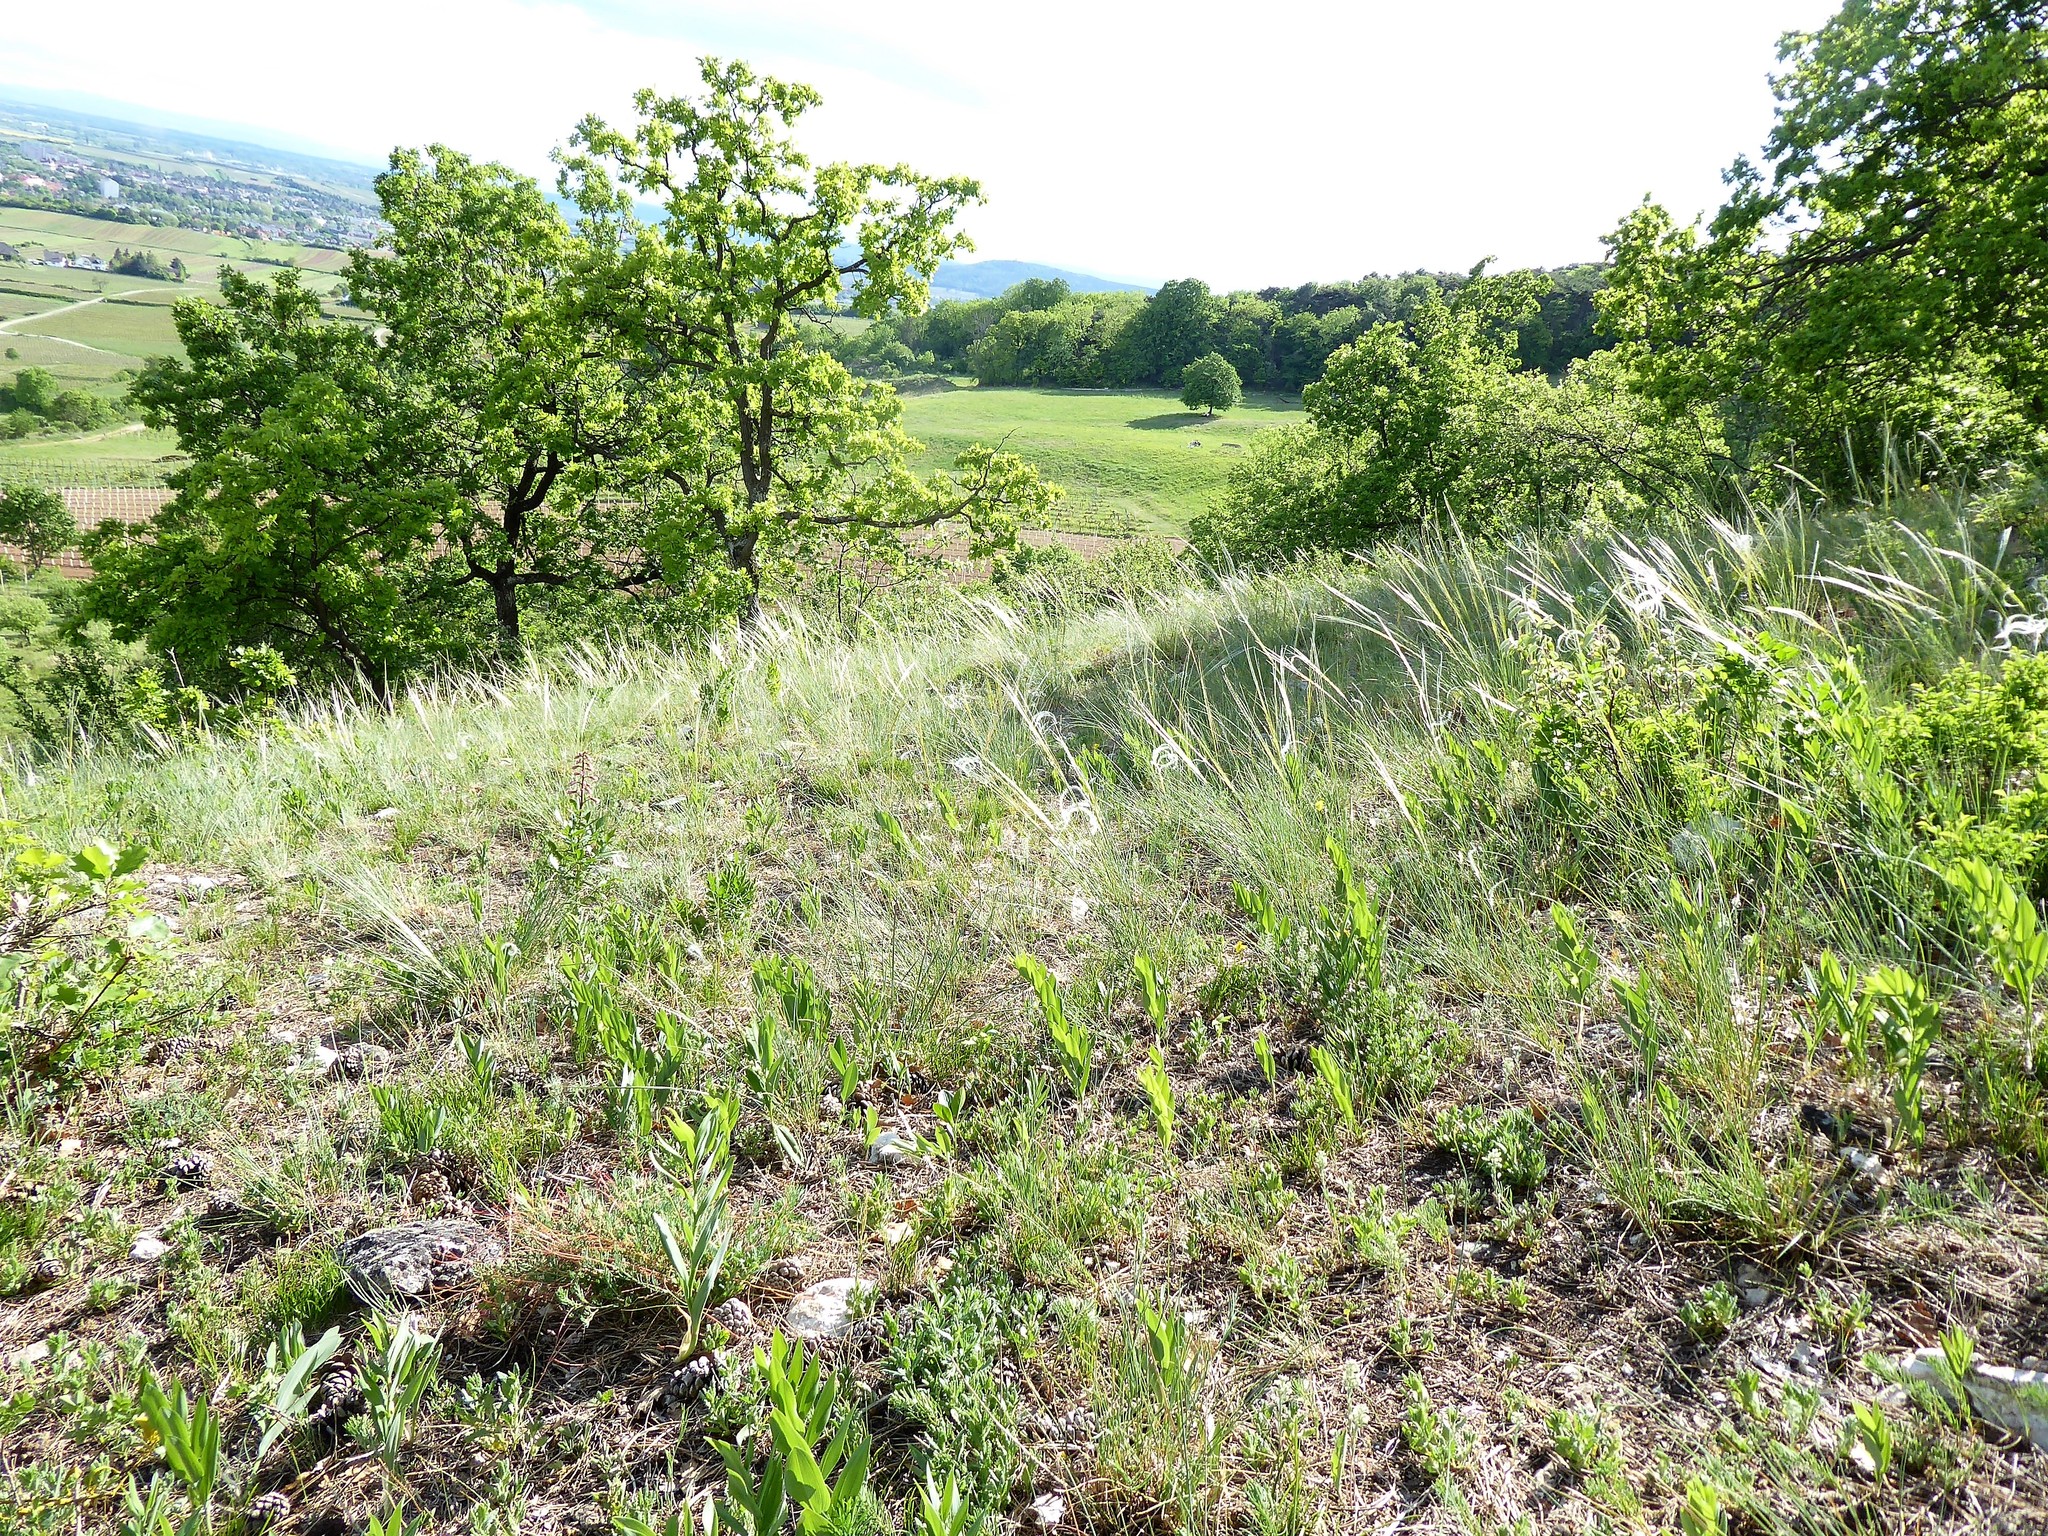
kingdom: Plantae
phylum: Tracheophyta
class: Liliopsida
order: Poales
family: Poaceae
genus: Stipa
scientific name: Stipa pennata
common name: European feather grass
